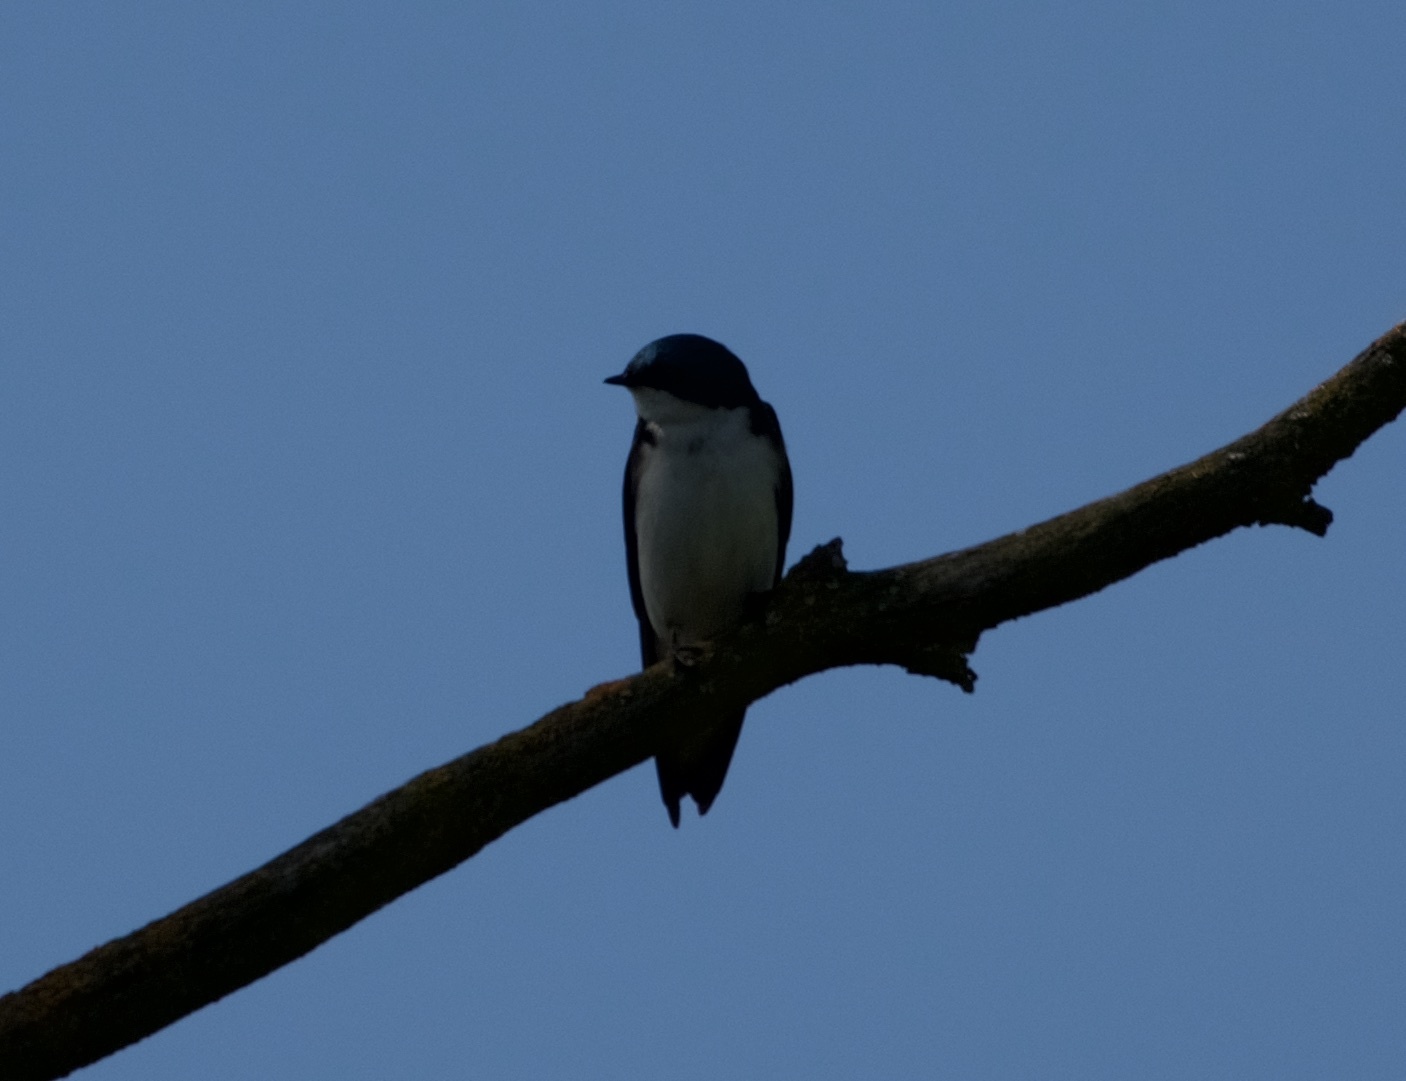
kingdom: Animalia
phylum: Chordata
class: Aves
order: Passeriformes
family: Hirundinidae
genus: Tachycineta
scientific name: Tachycineta bicolor
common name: Tree swallow
